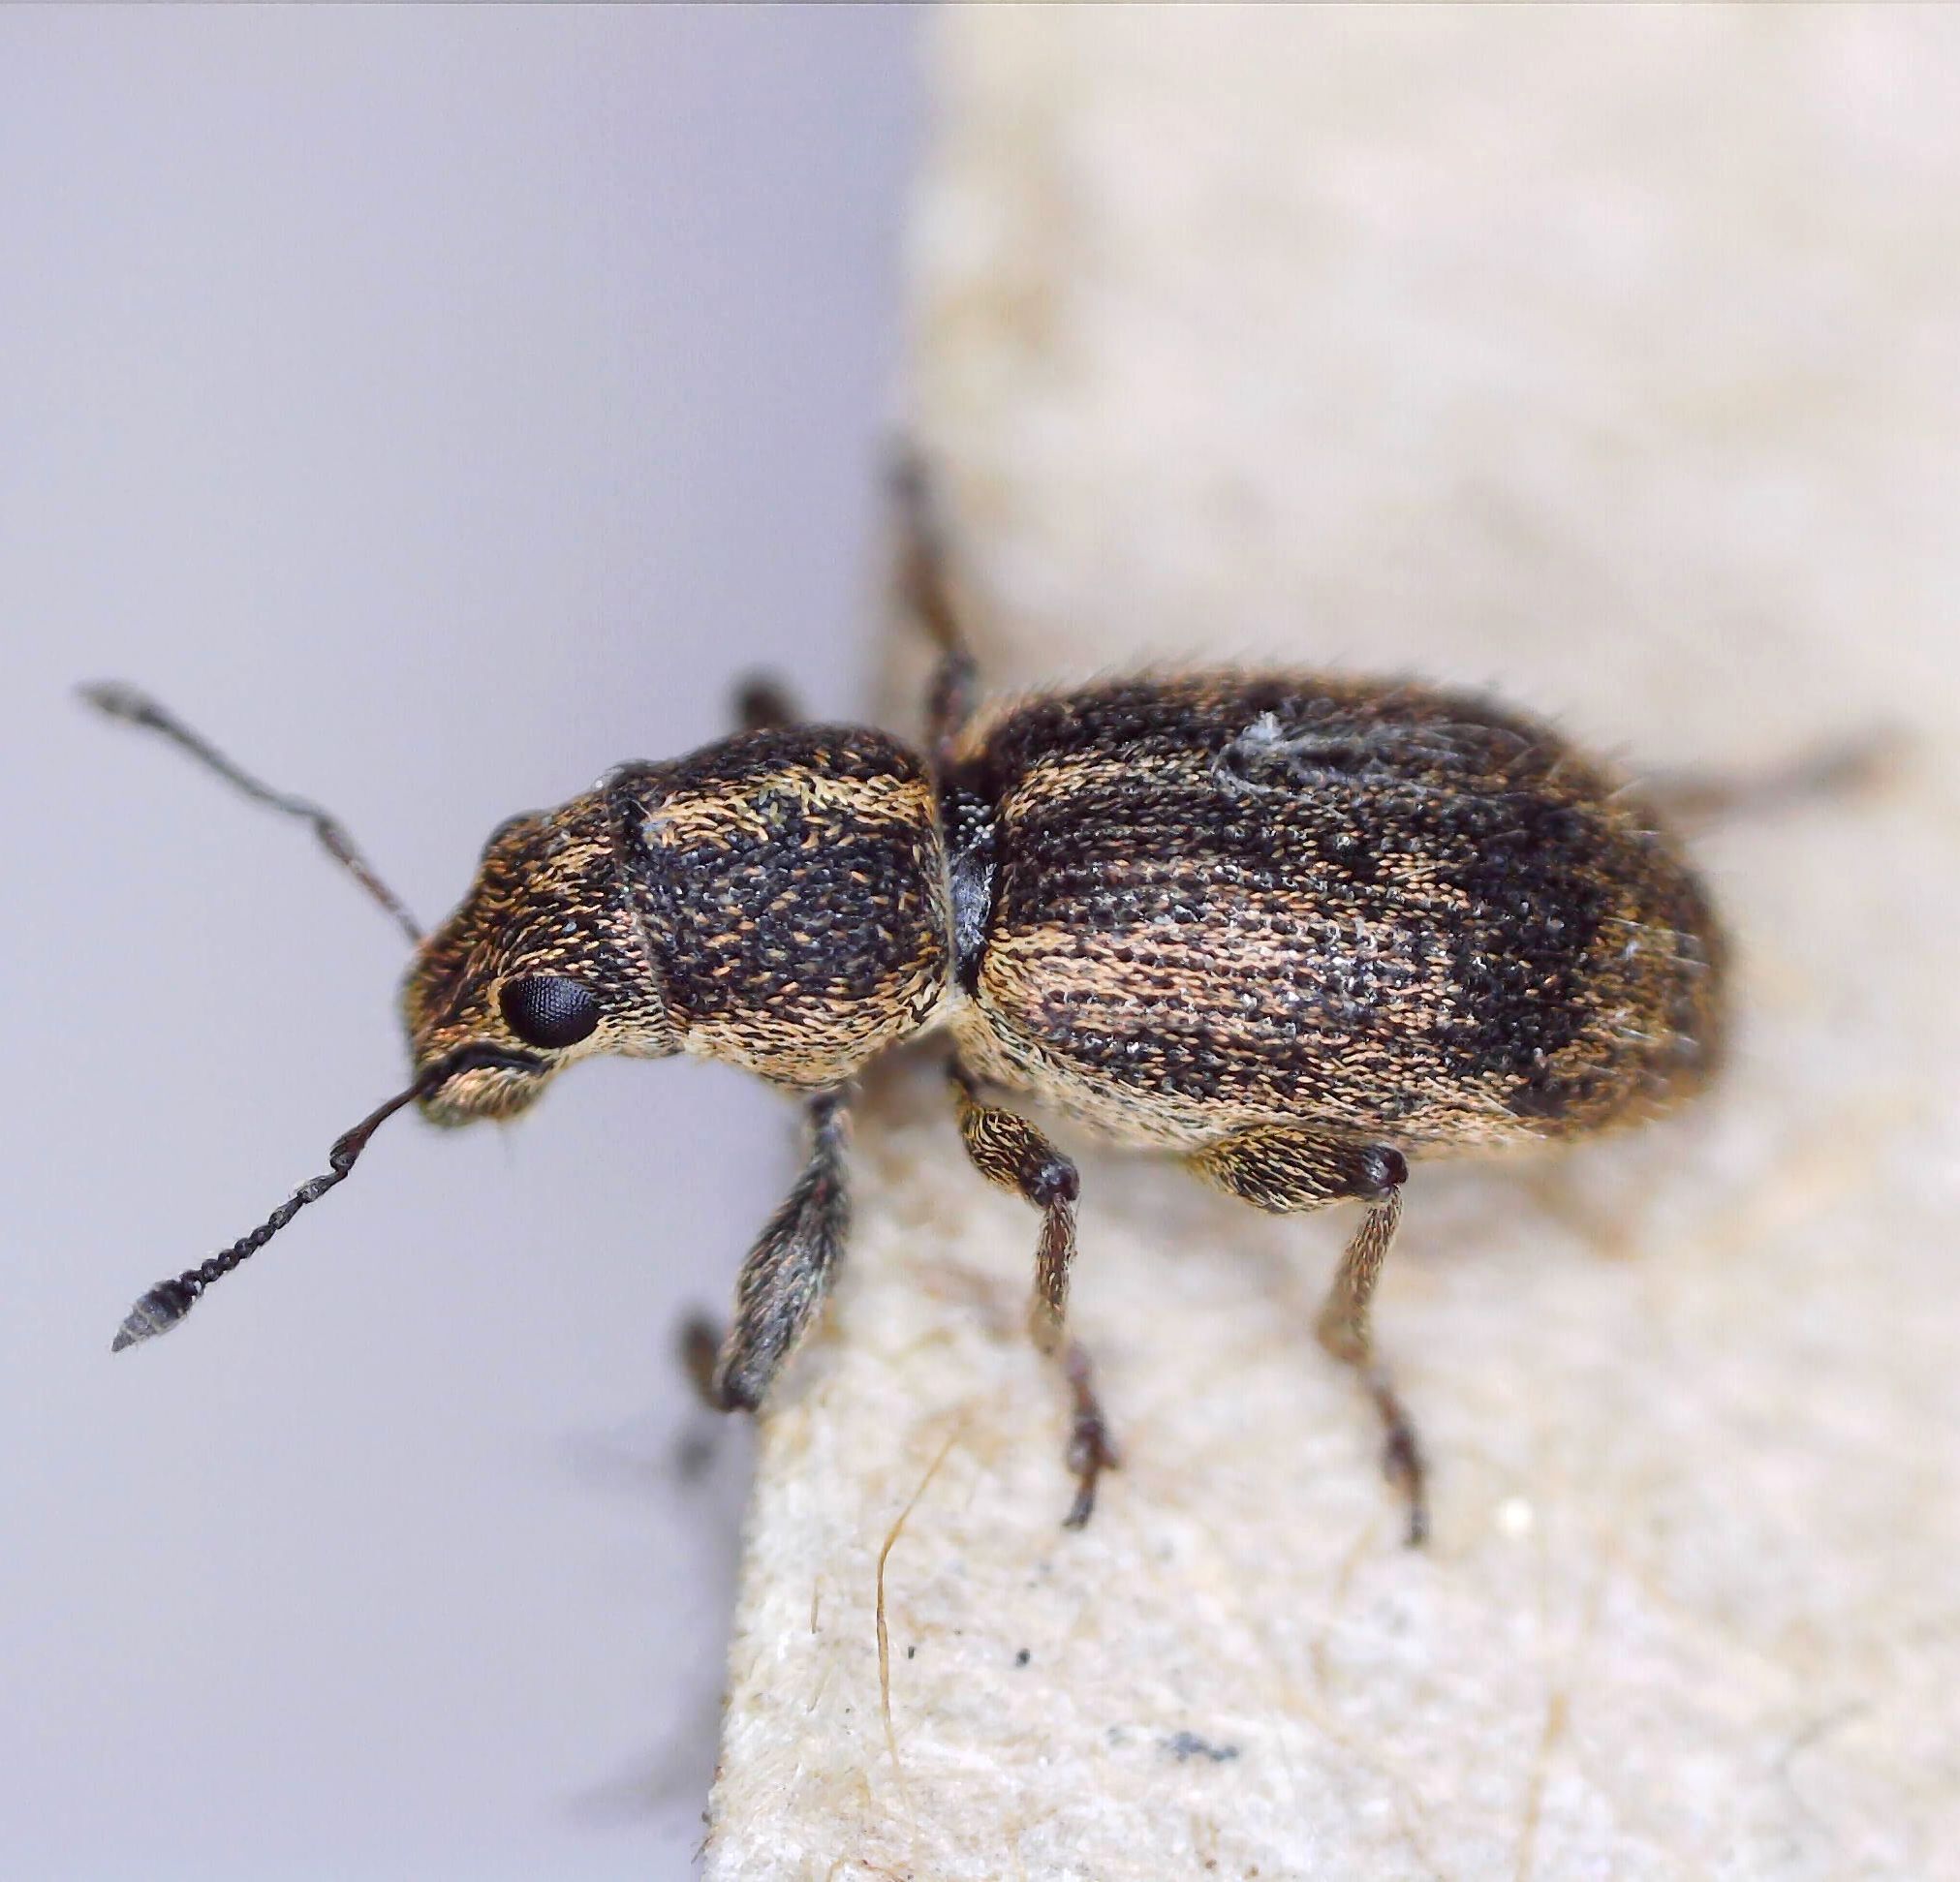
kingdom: Animalia
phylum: Arthropoda
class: Insecta
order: Coleoptera
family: Curculionidae
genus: Andrion
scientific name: Andrion regensteinense
